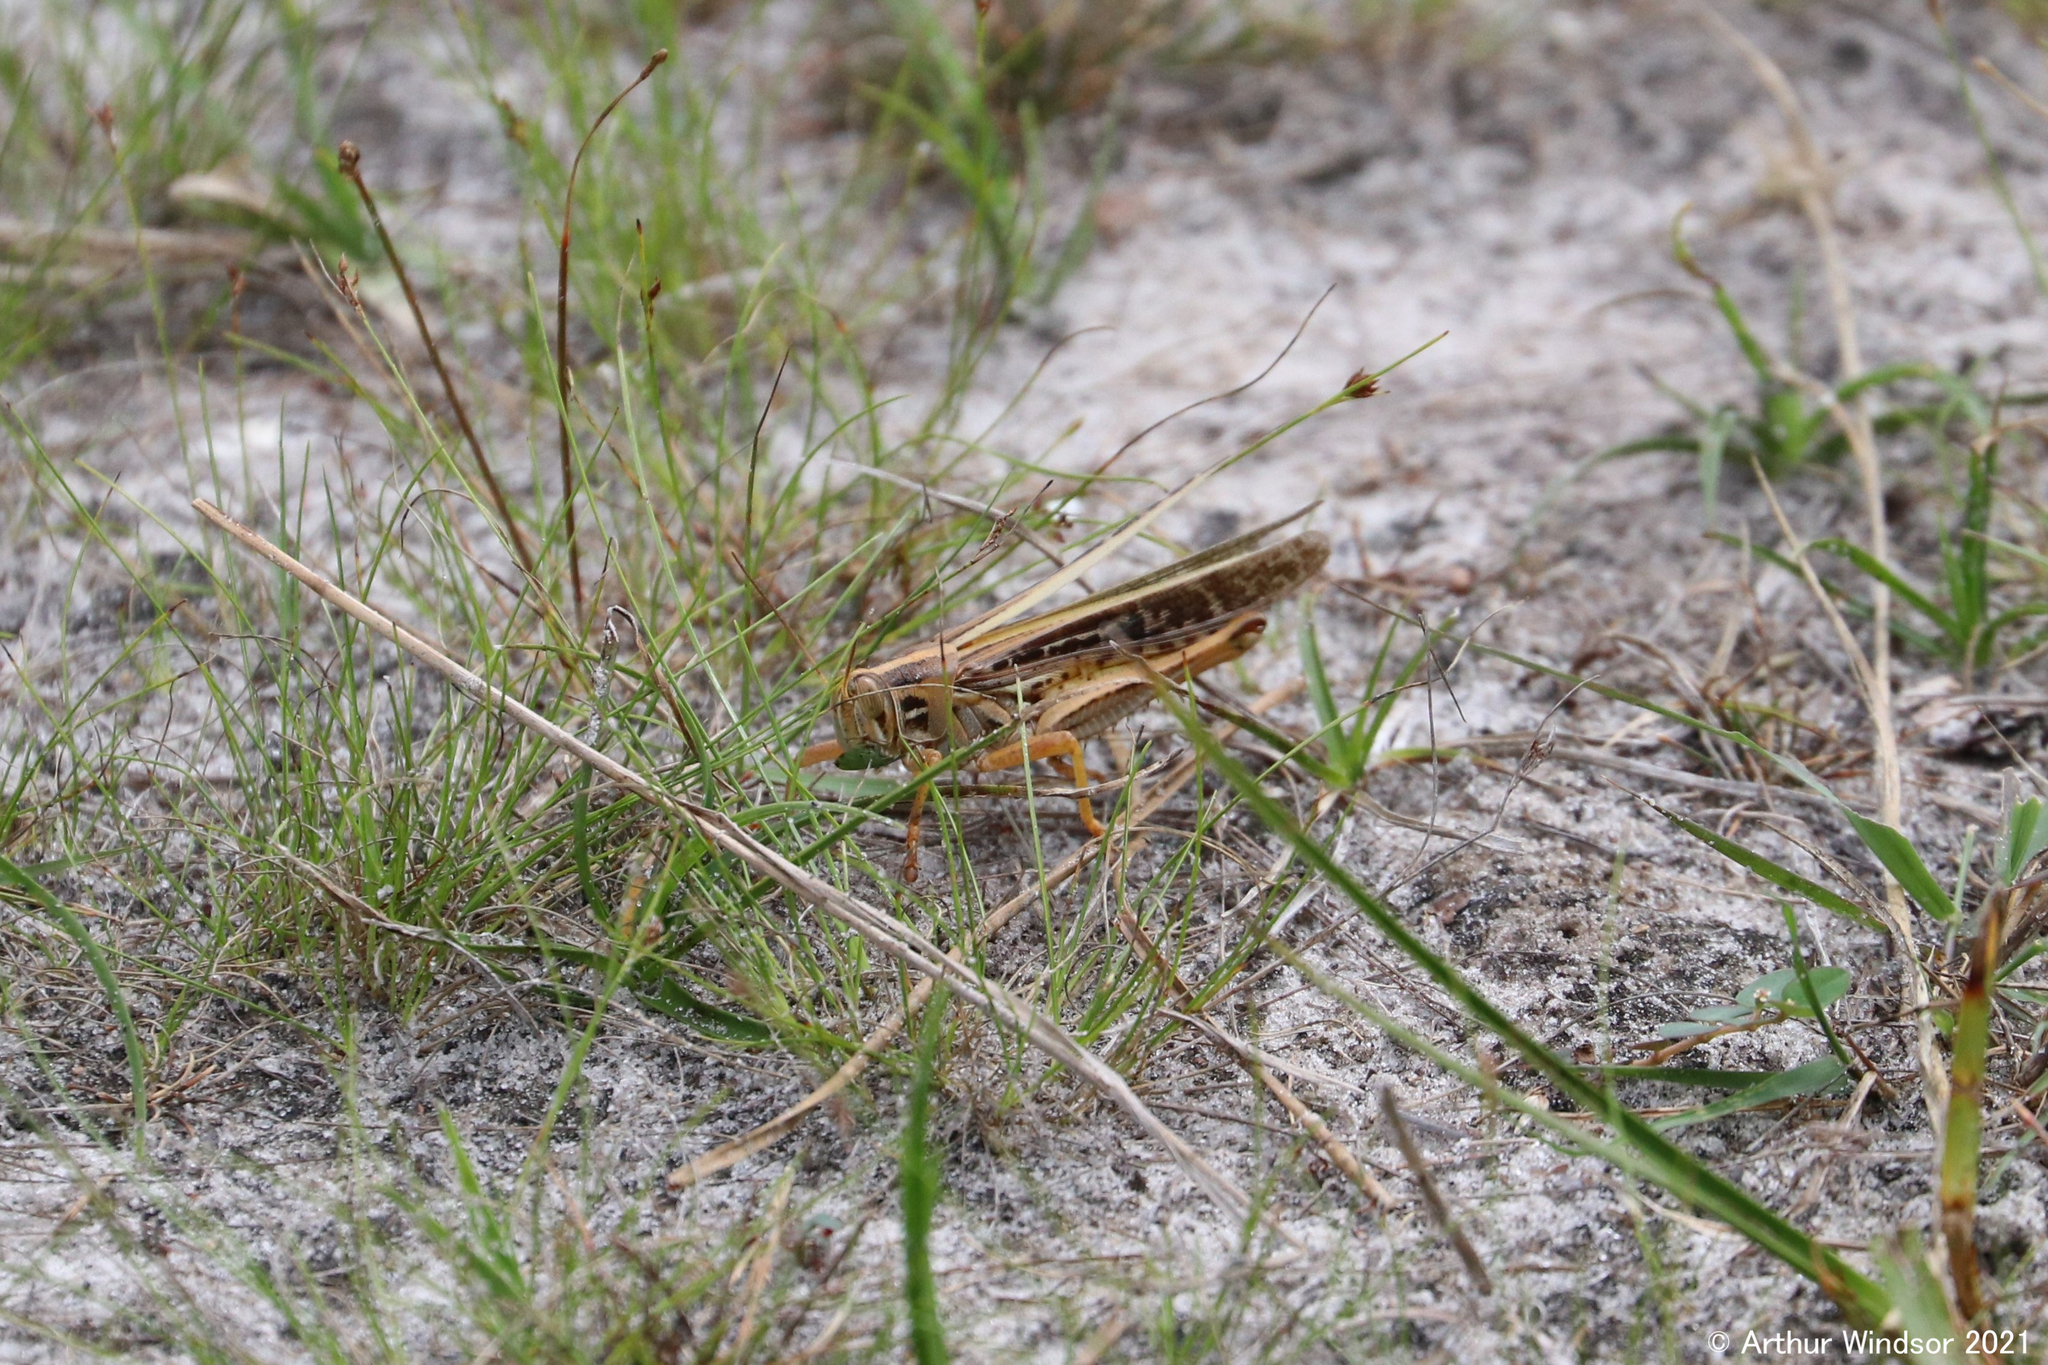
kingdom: Animalia
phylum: Arthropoda
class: Insecta
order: Orthoptera
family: Acrididae
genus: Schistocerca
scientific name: Schistocerca americana
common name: American bird locust
